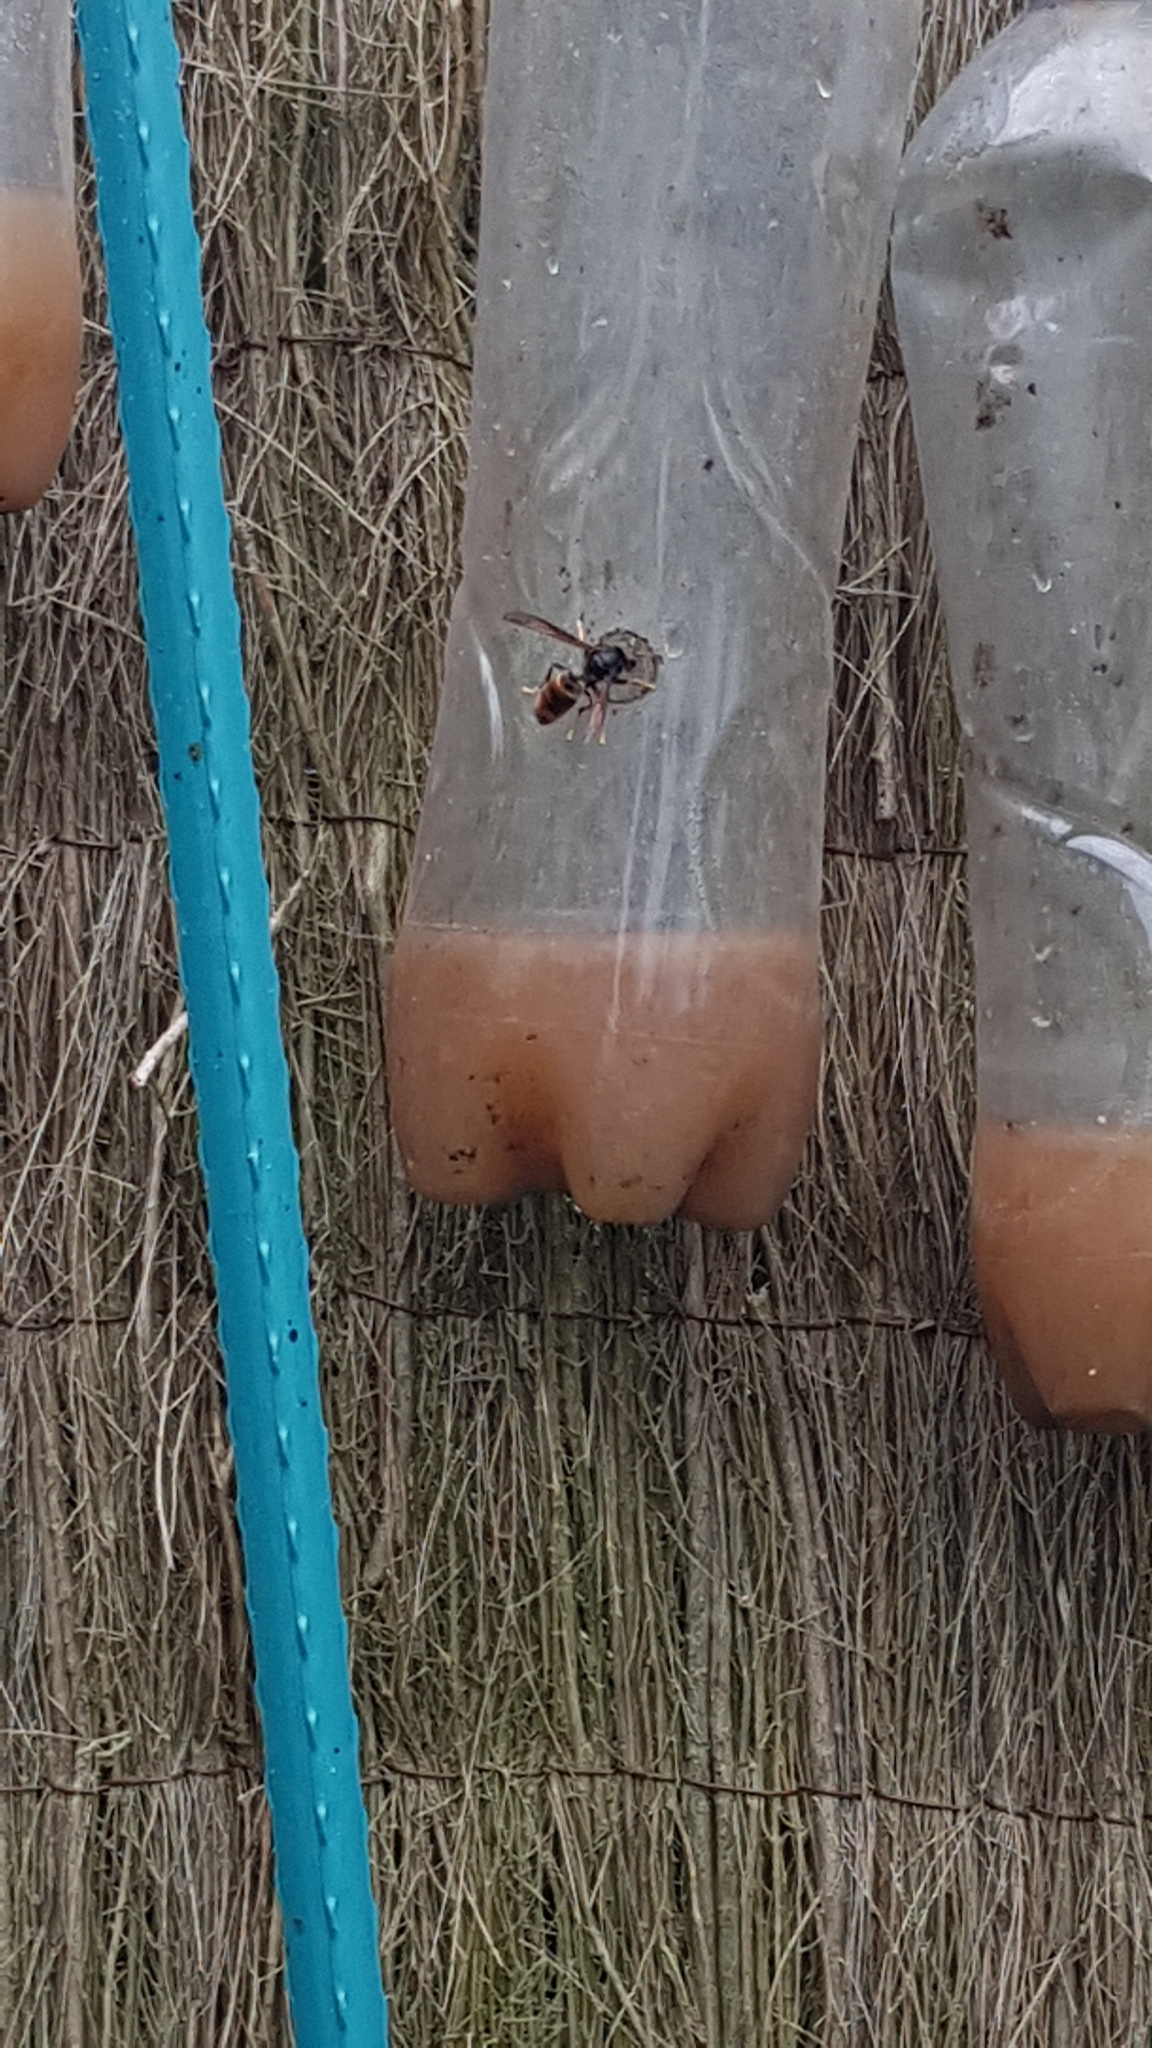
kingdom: Animalia
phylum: Arthropoda
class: Insecta
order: Hymenoptera
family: Vespidae
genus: Vespa
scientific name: Vespa velutina
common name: Asian hornet
